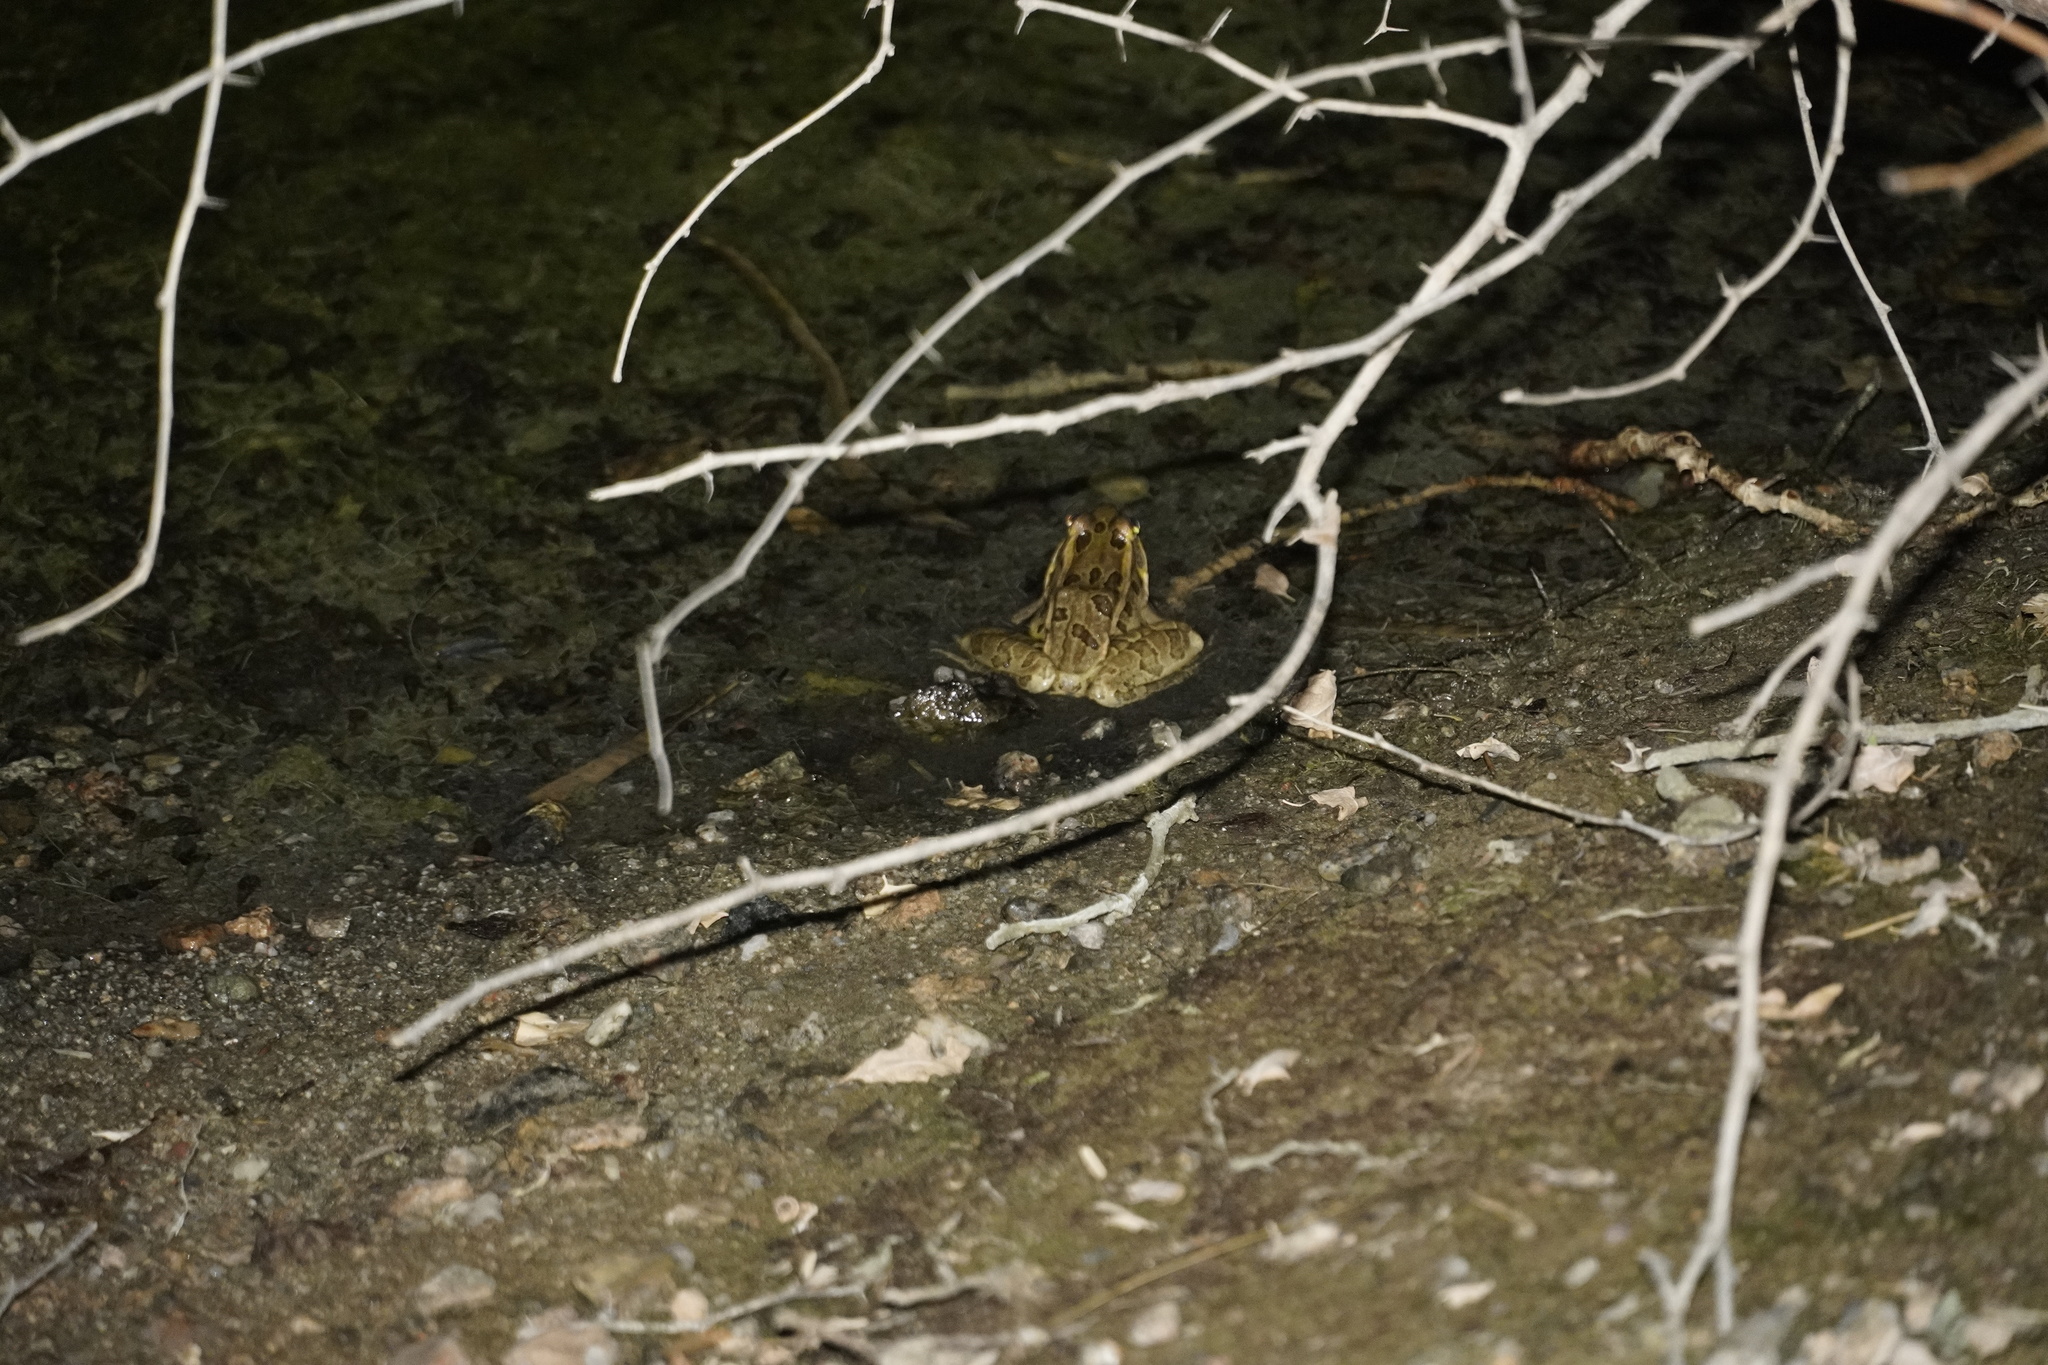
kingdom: Animalia
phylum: Chordata
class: Amphibia
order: Anura
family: Ranidae
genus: Lithobates
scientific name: Lithobates berlandieri
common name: Rio grande leopard frog
